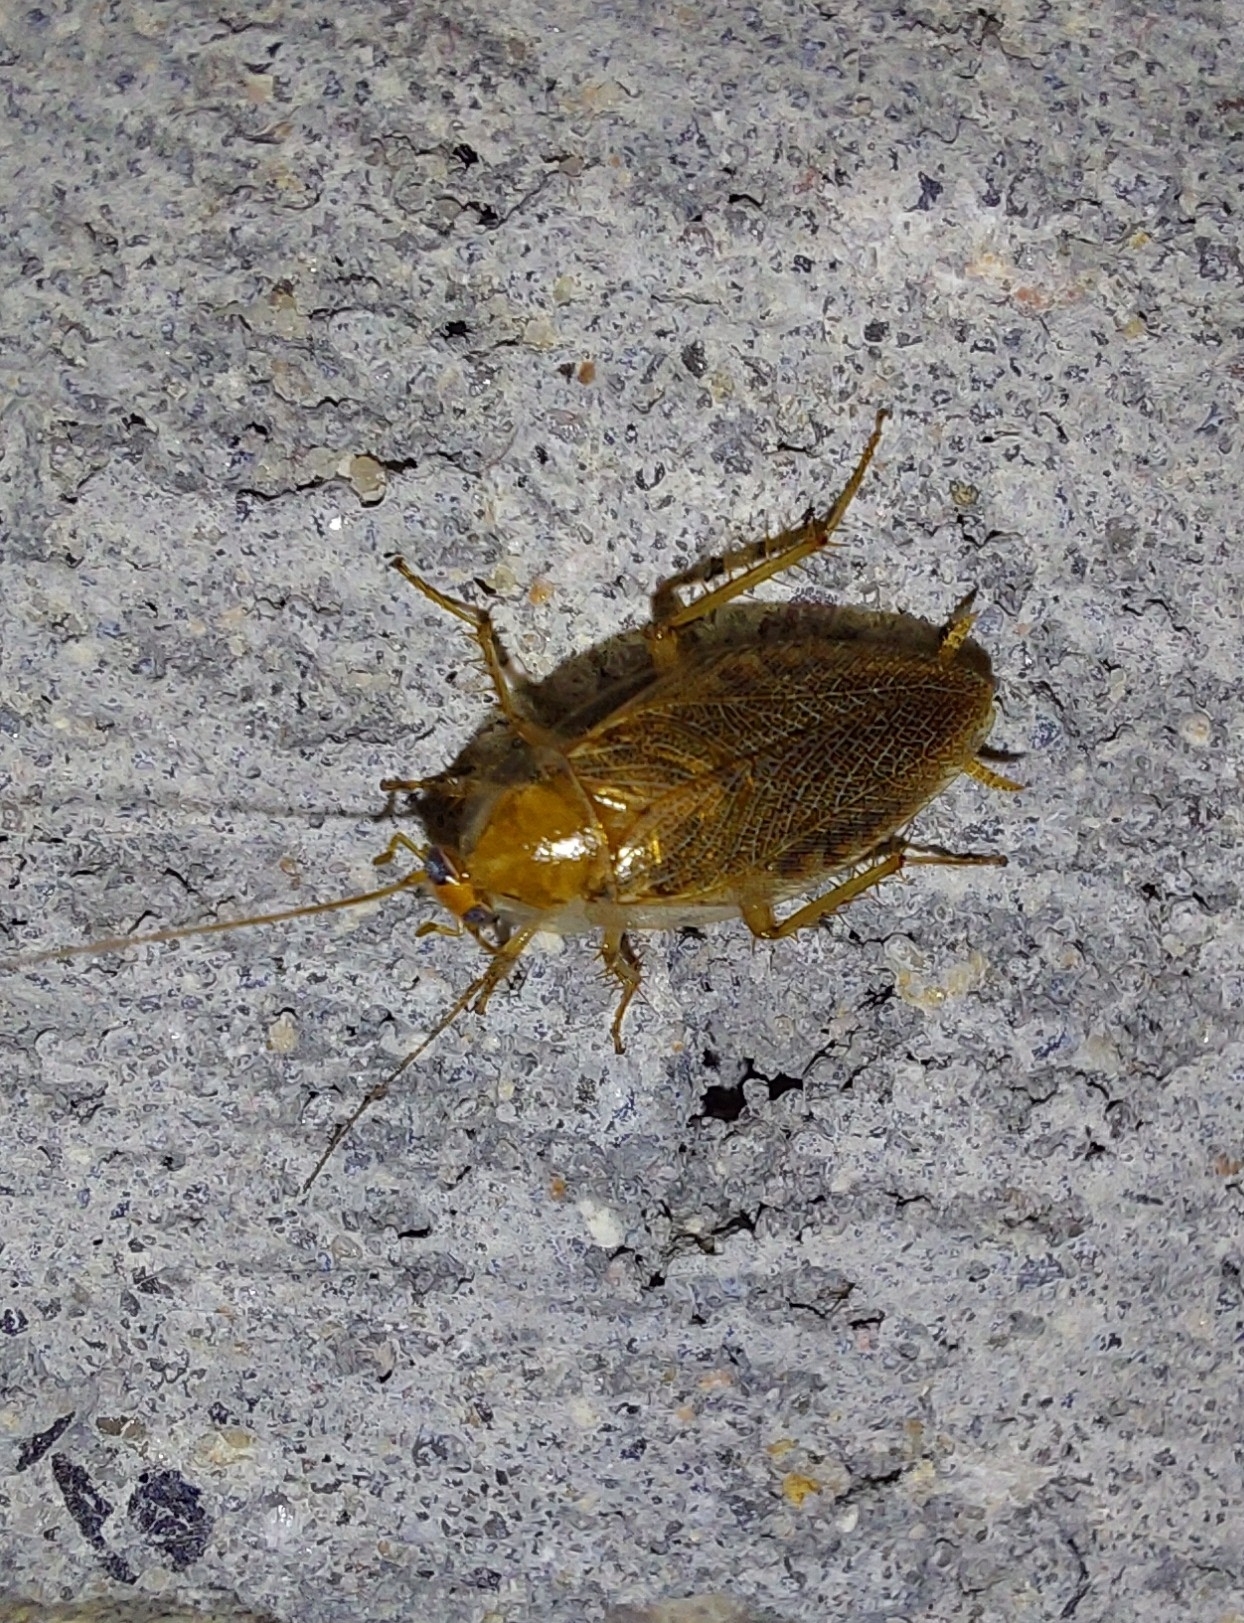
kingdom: Animalia
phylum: Arthropoda
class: Insecta
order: Blattodea
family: Ectobiidae
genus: Ectobius
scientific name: Ectobius vittiventris
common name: Garden cockroach
